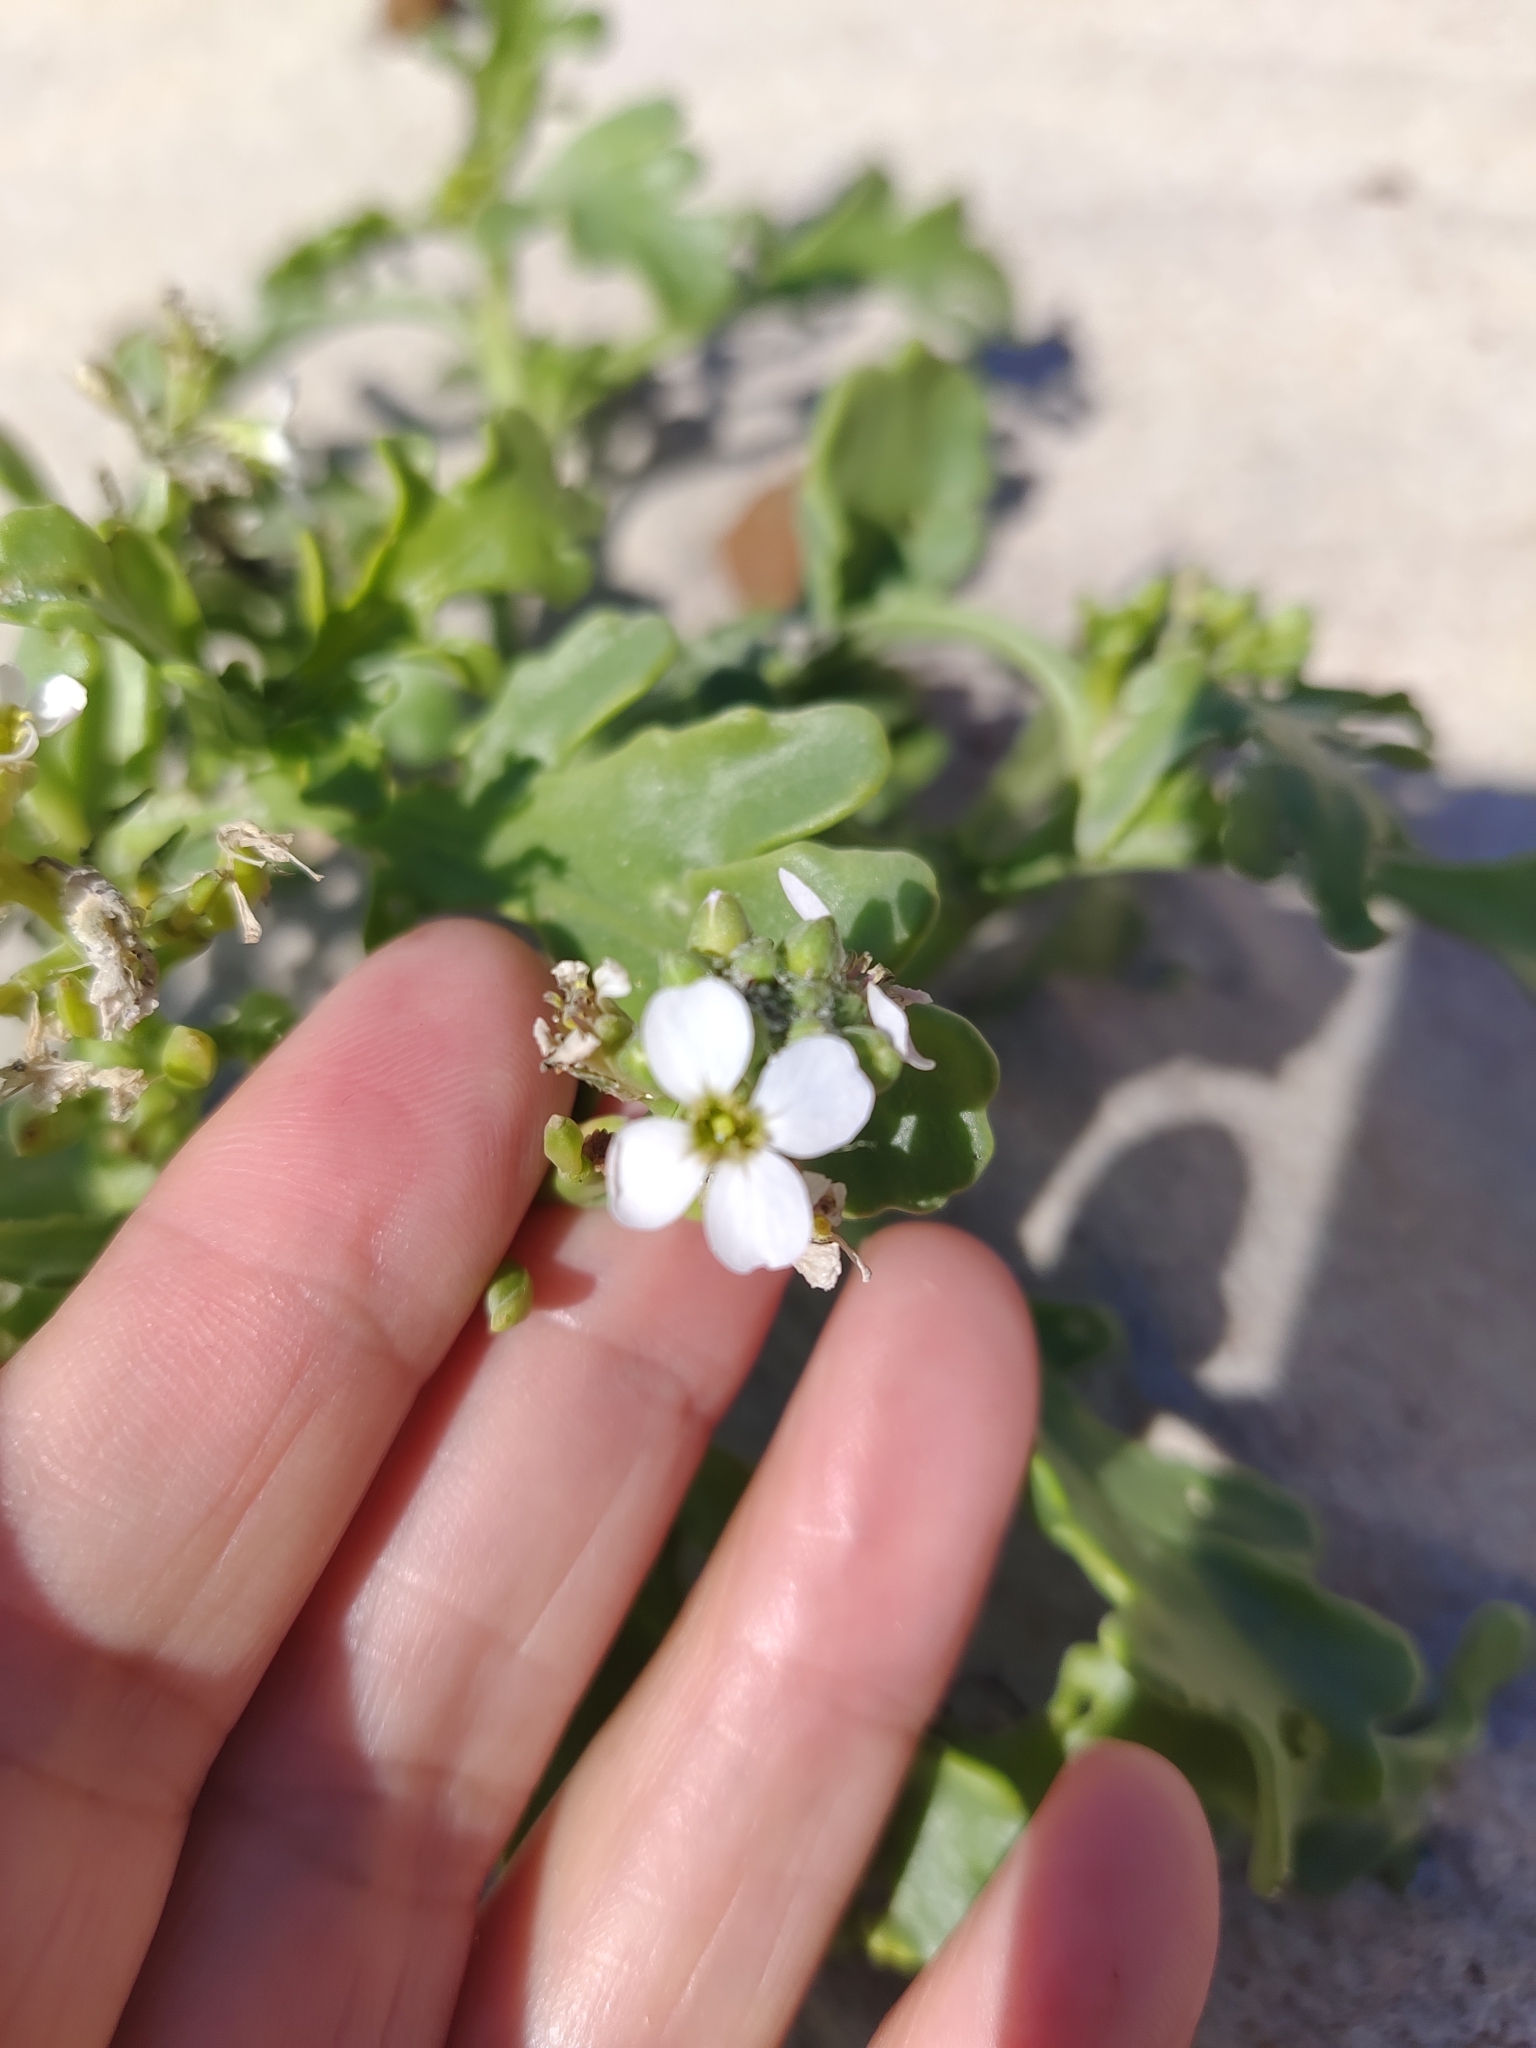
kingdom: Plantae
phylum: Tracheophyta
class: Magnoliopsida
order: Brassicales
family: Brassicaceae
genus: Cakile
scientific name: Cakile maritima
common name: Sea rocket
